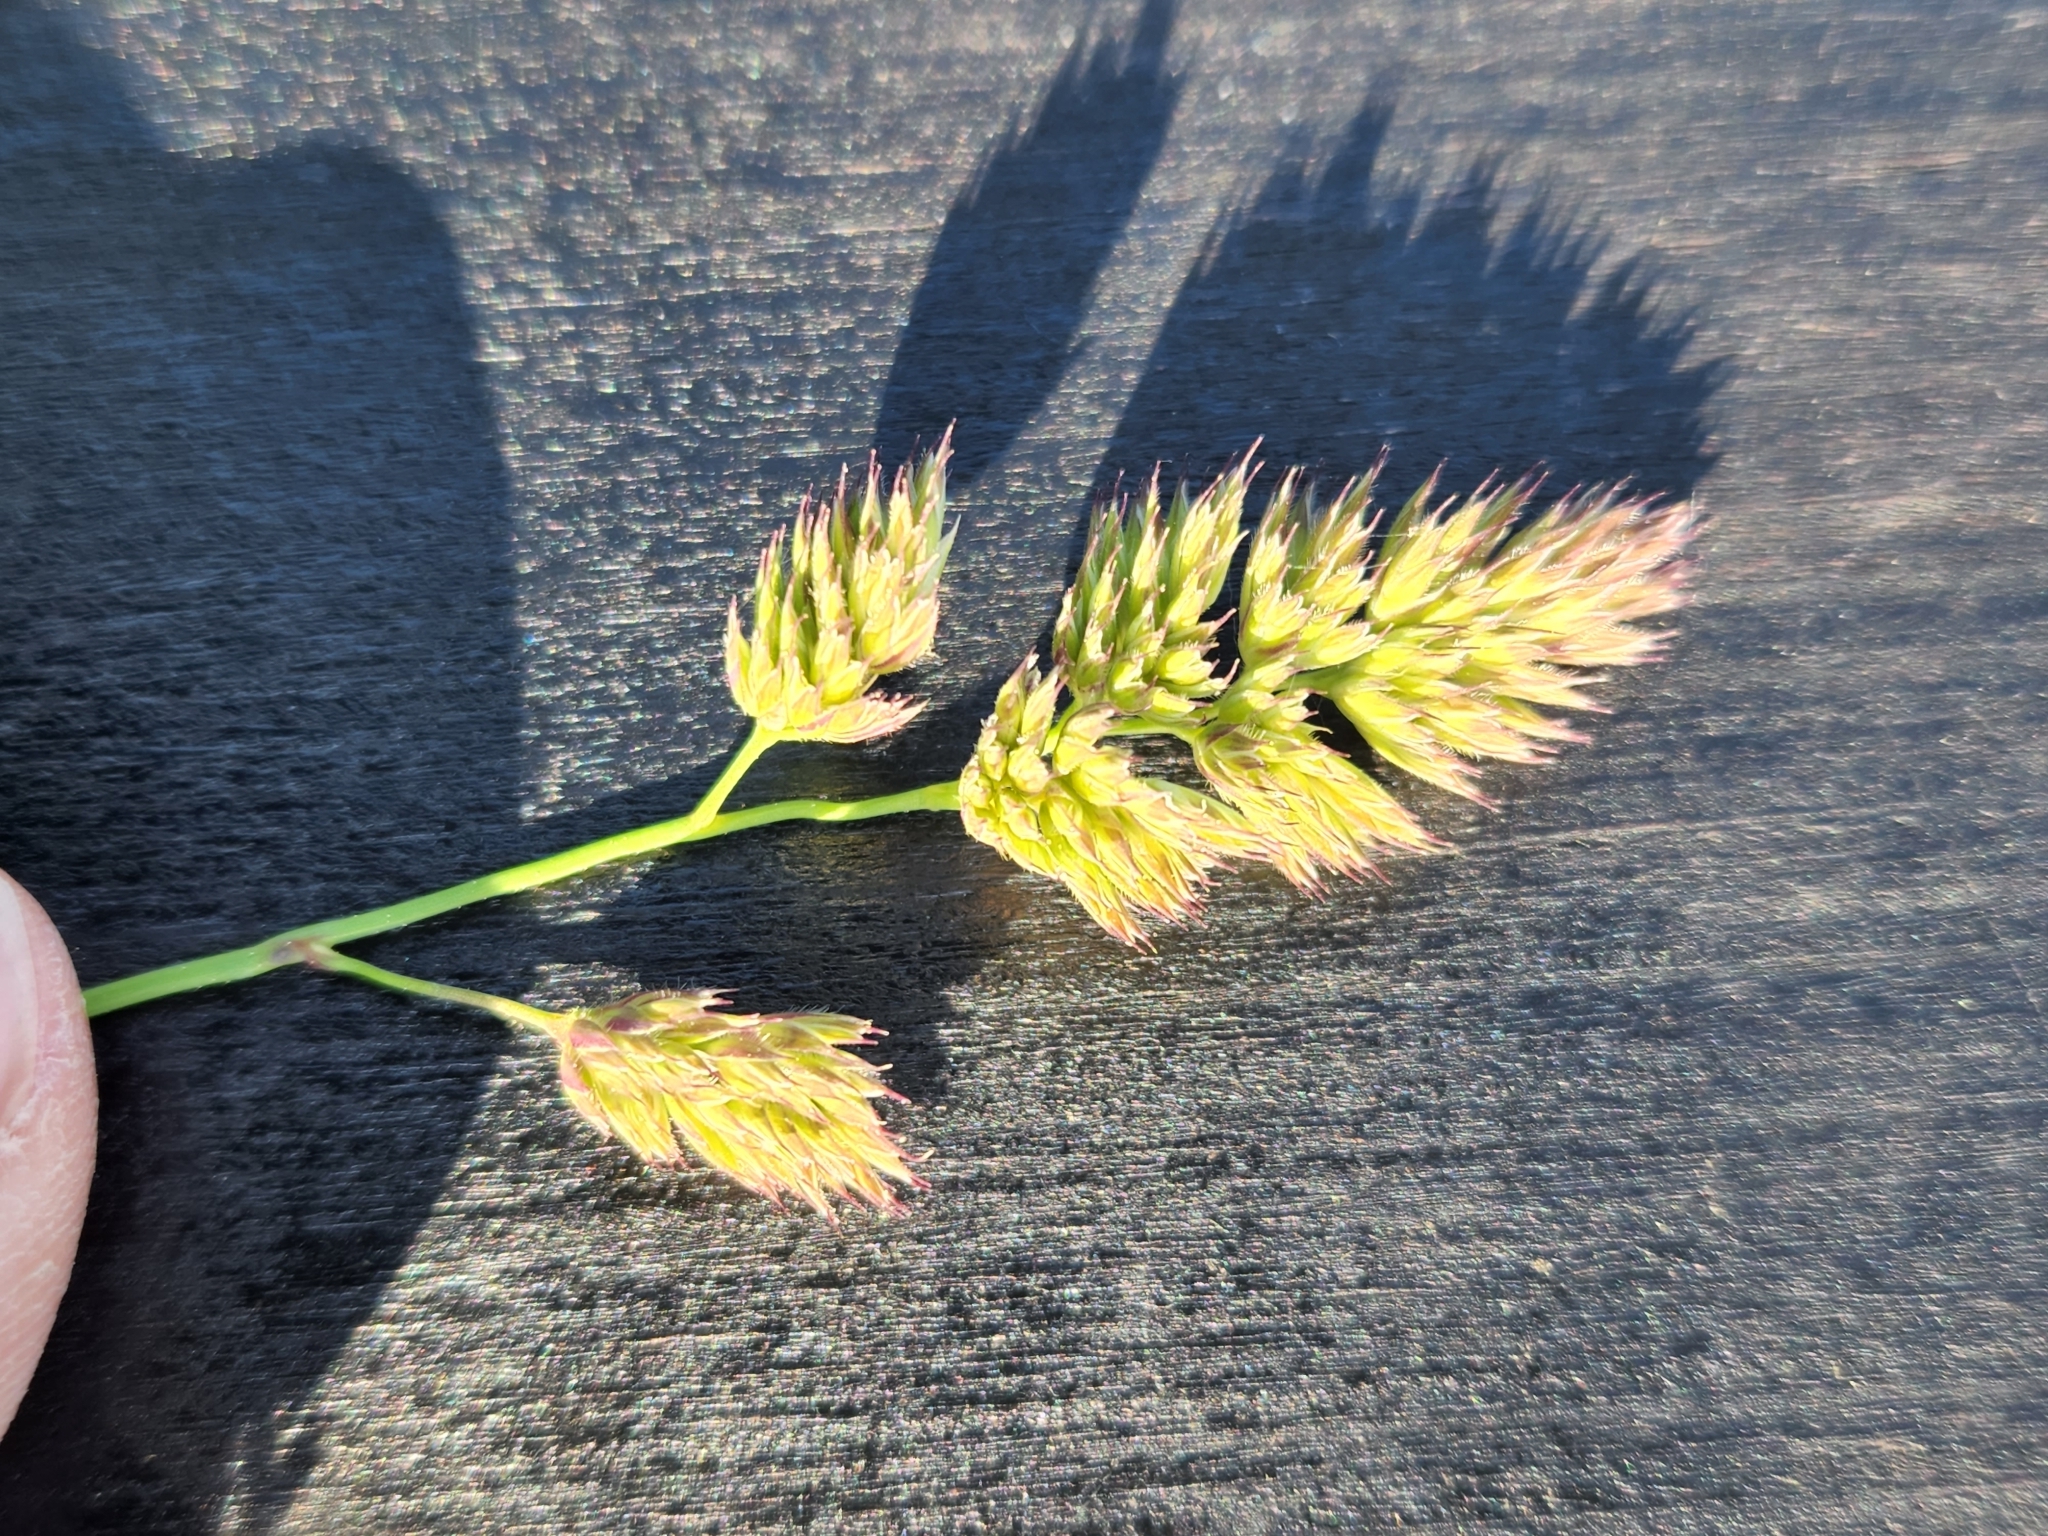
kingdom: Plantae
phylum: Tracheophyta
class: Liliopsida
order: Poales
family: Poaceae
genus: Dactylis
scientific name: Dactylis glomerata
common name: Orchardgrass
